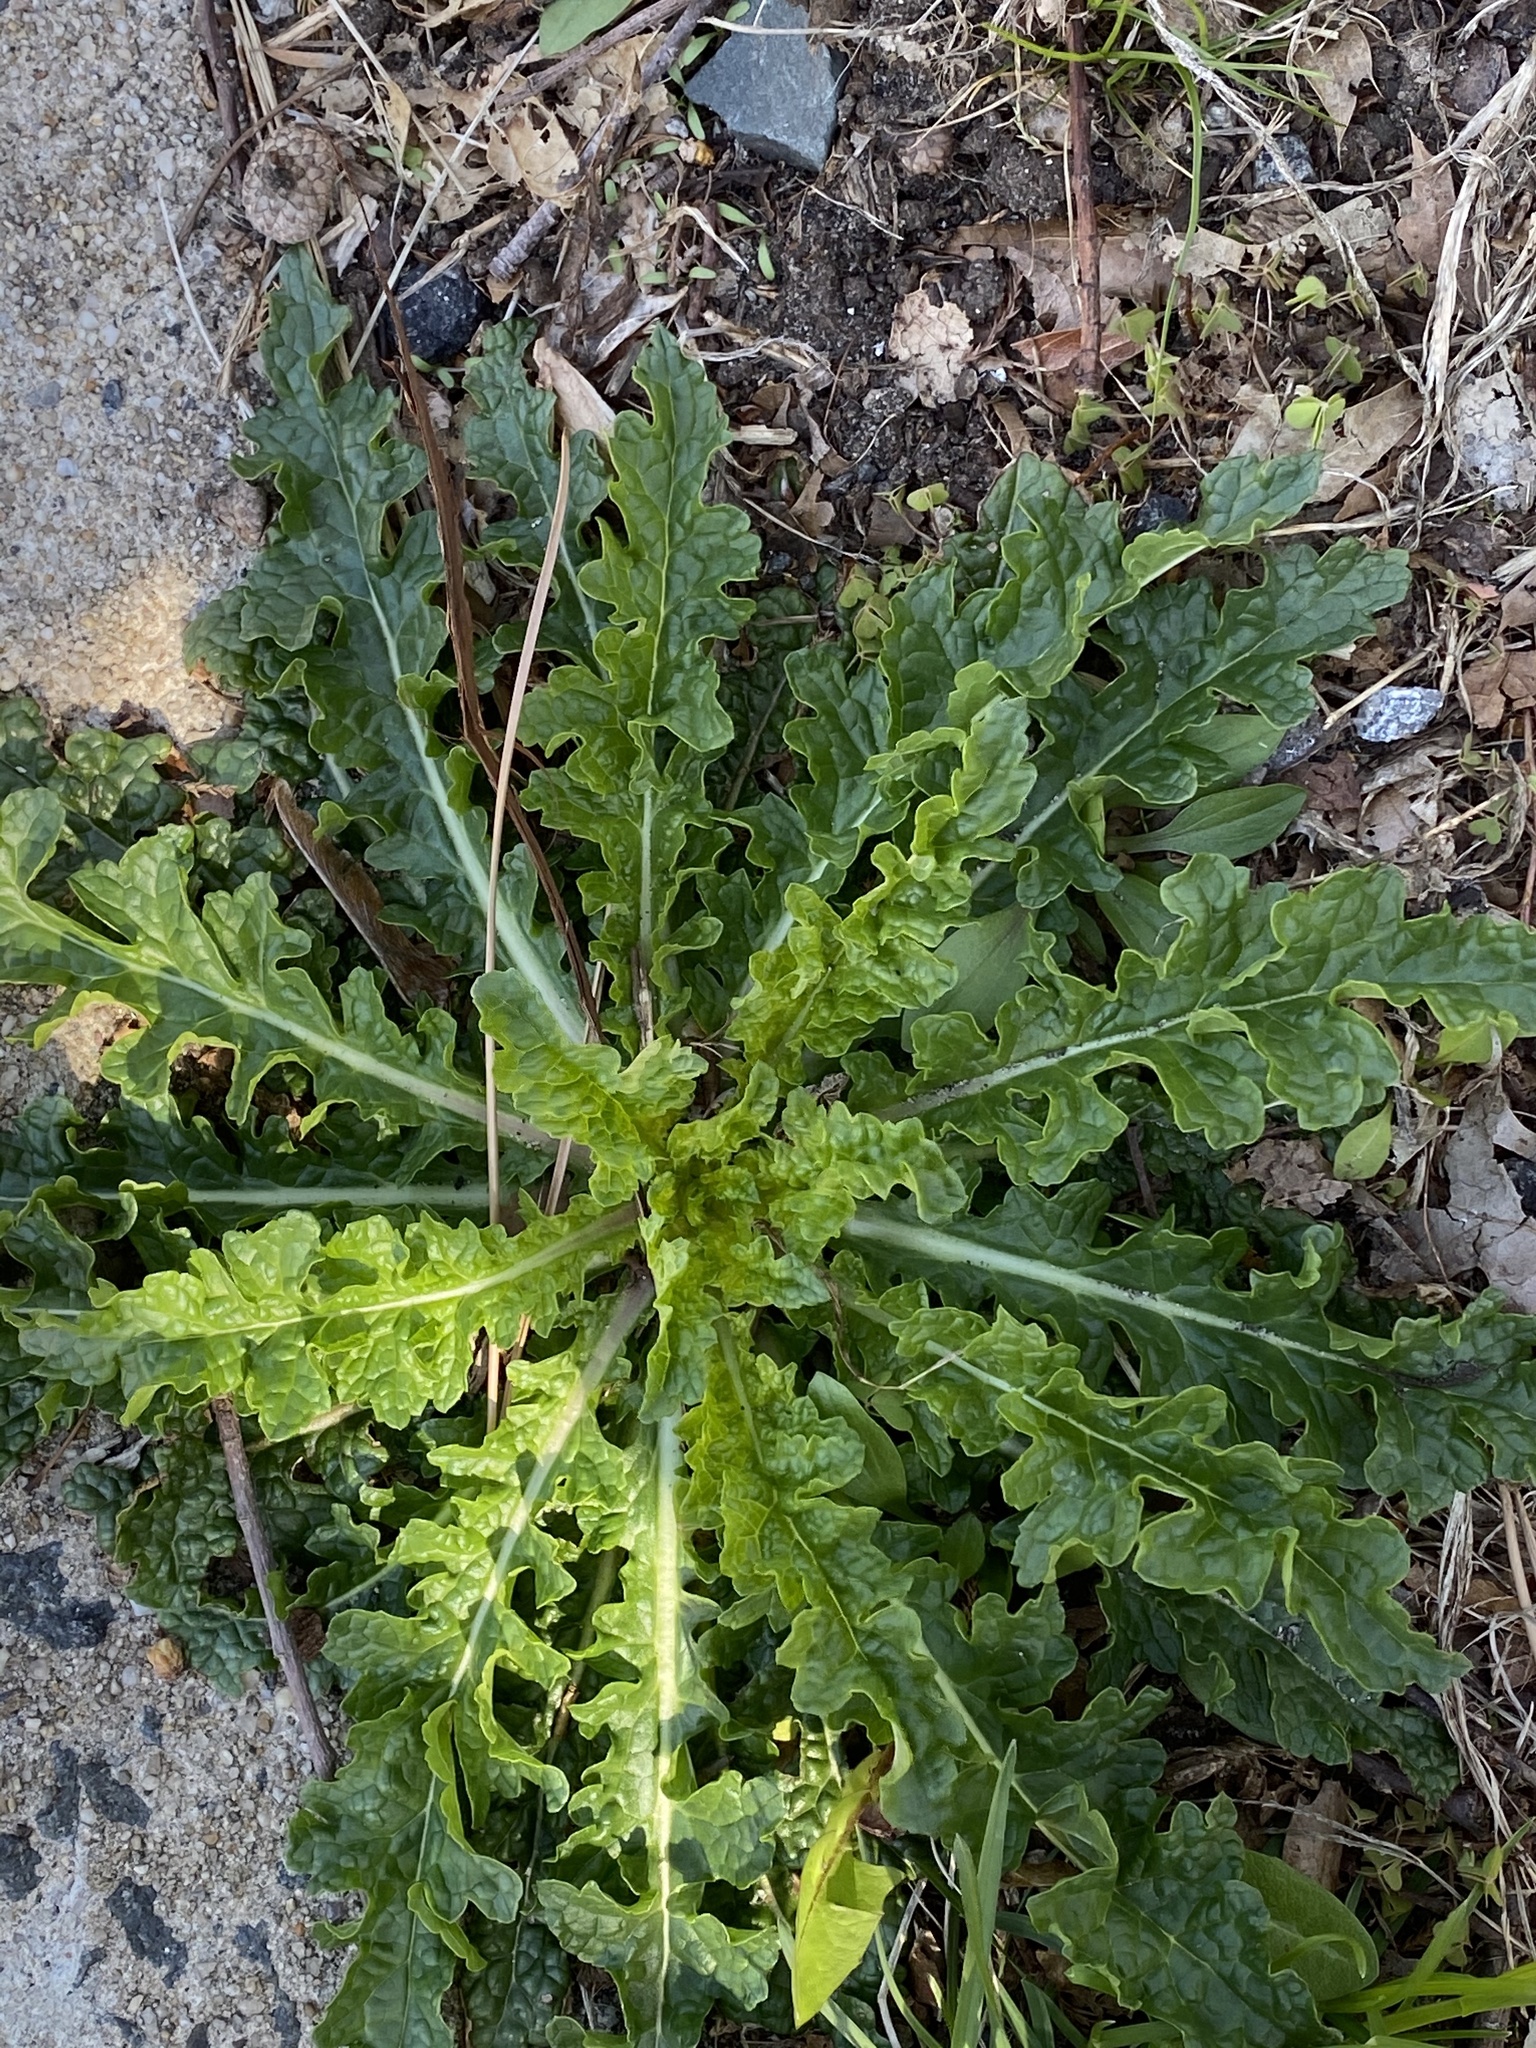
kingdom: Plantae
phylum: Tracheophyta
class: Magnoliopsida
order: Lamiales
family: Scrophulariaceae
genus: Verbascum
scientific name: Verbascum blattaria
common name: Moth mullein
